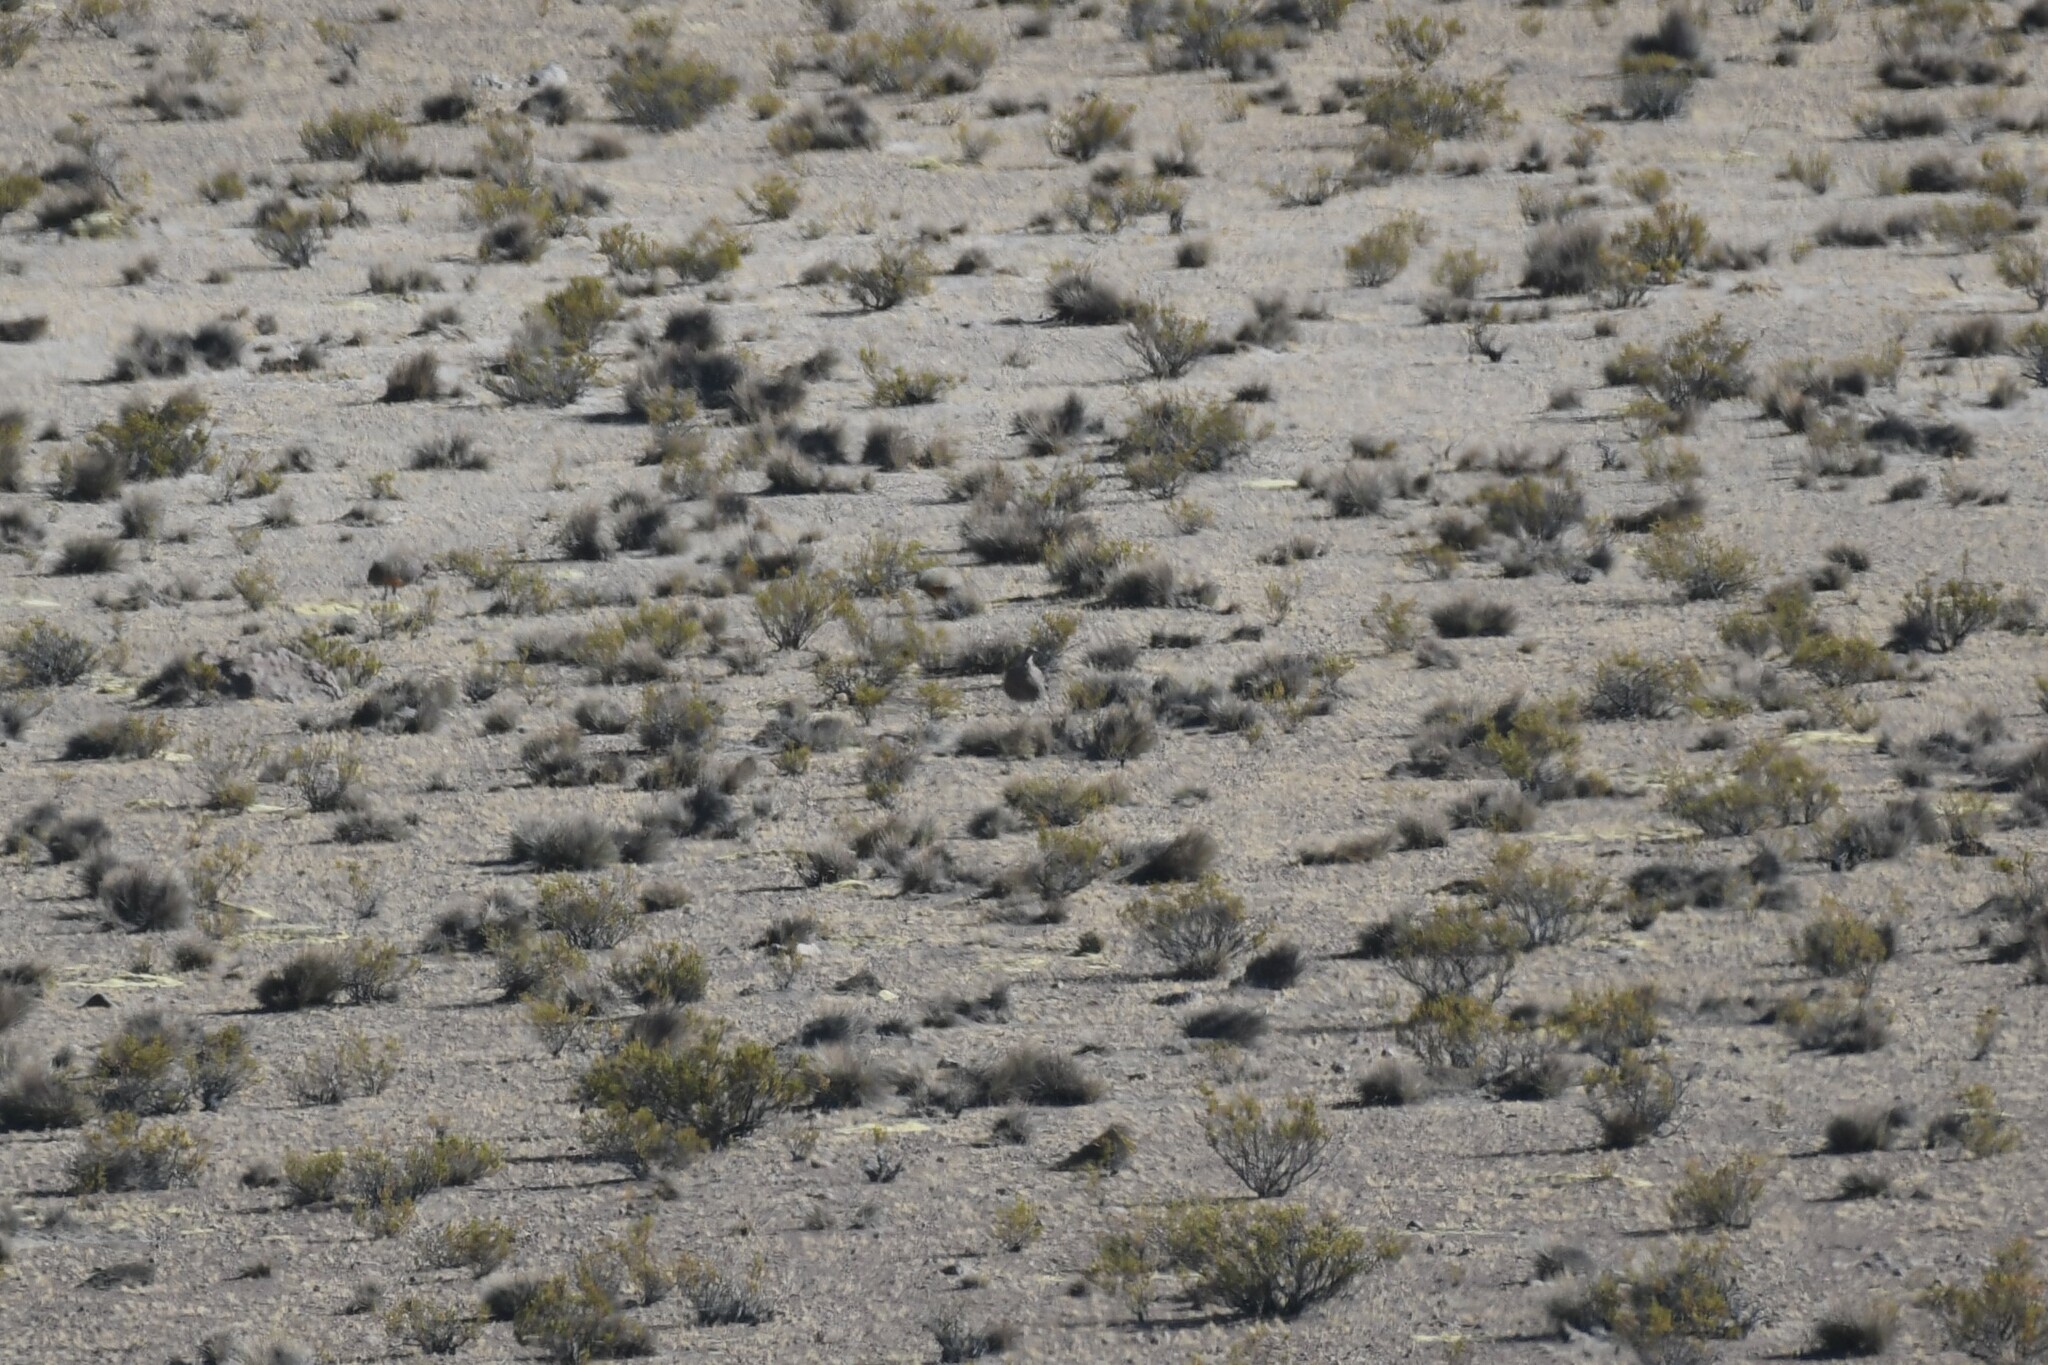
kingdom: Animalia
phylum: Chordata
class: Aves
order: Tinamiformes
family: Tinamidae
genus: Tinamotis
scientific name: Tinamotis pentlandii
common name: Puna tinamou
